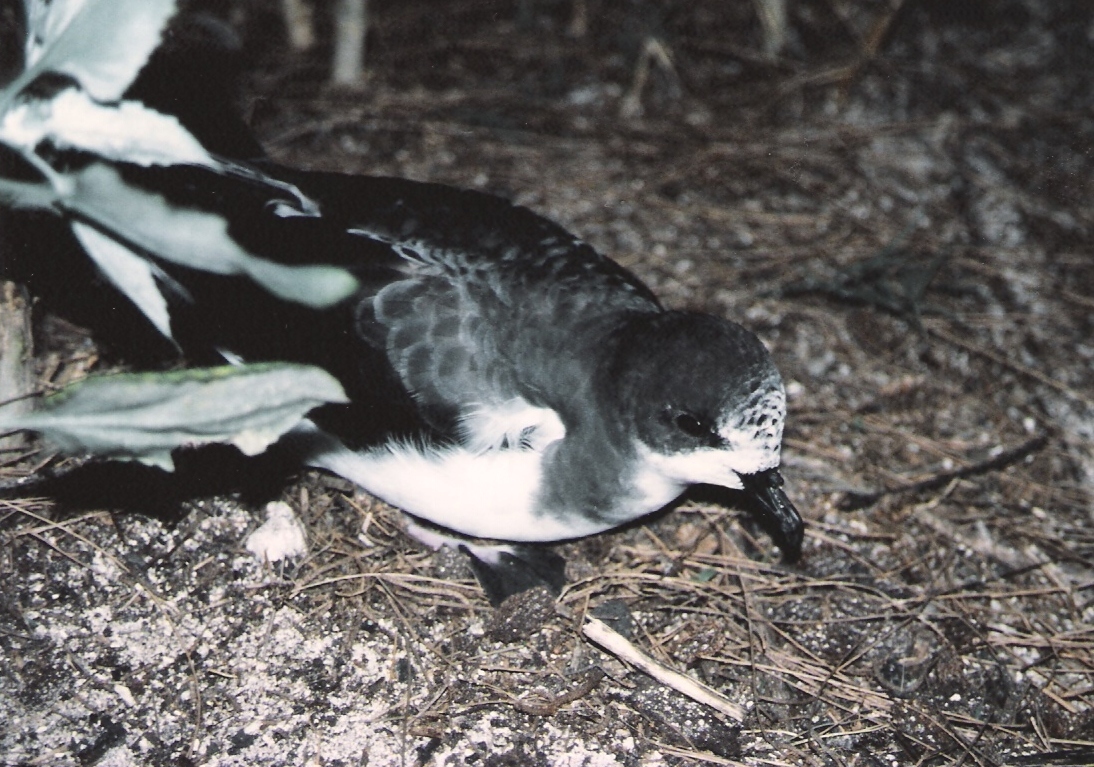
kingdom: Animalia
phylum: Chordata
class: Aves
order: Procellariiformes
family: Procellariidae
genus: Pterodroma
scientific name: Pterodroma hypoleuca
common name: Bonin petrel
